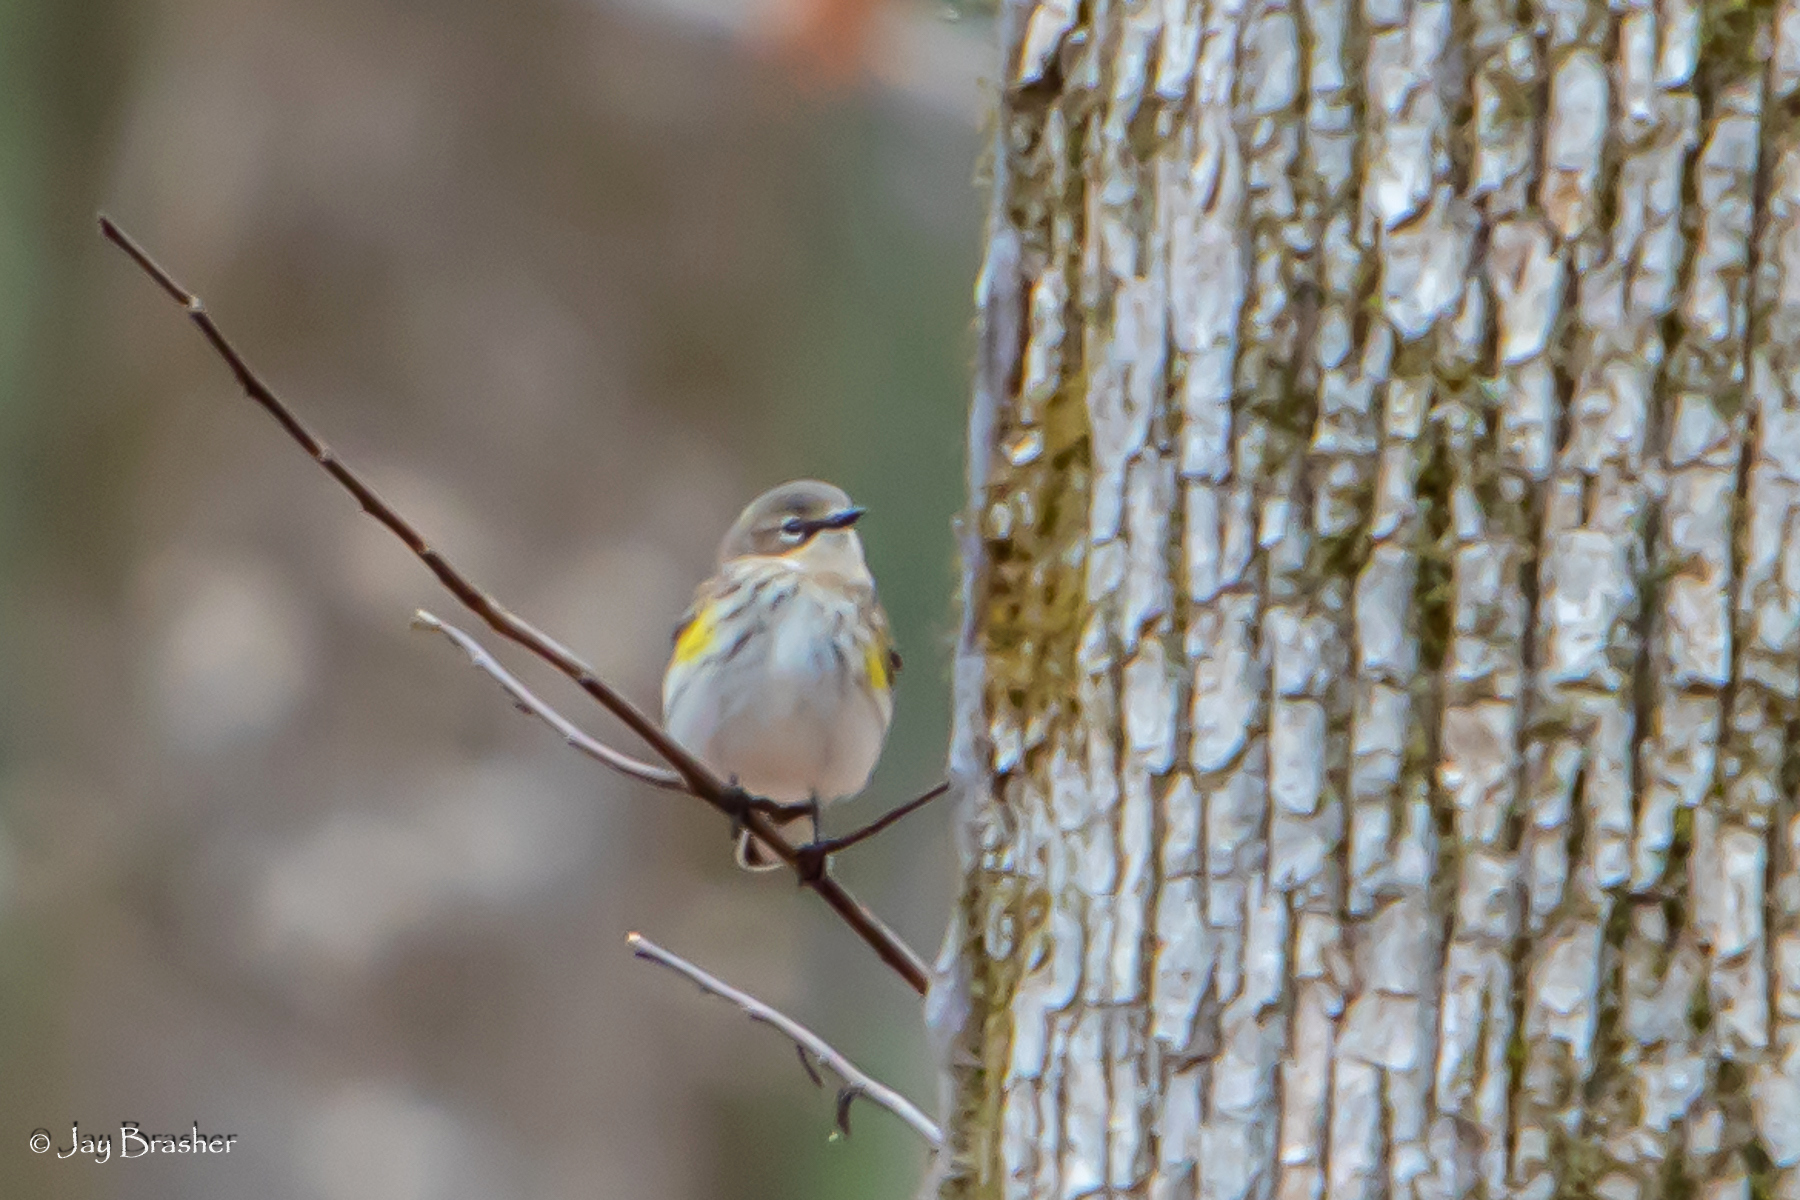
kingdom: Animalia
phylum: Chordata
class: Aves
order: Passeriformes
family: Parulidae
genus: Setophaga
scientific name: Setophaga coronata
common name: Myrtle warbler
